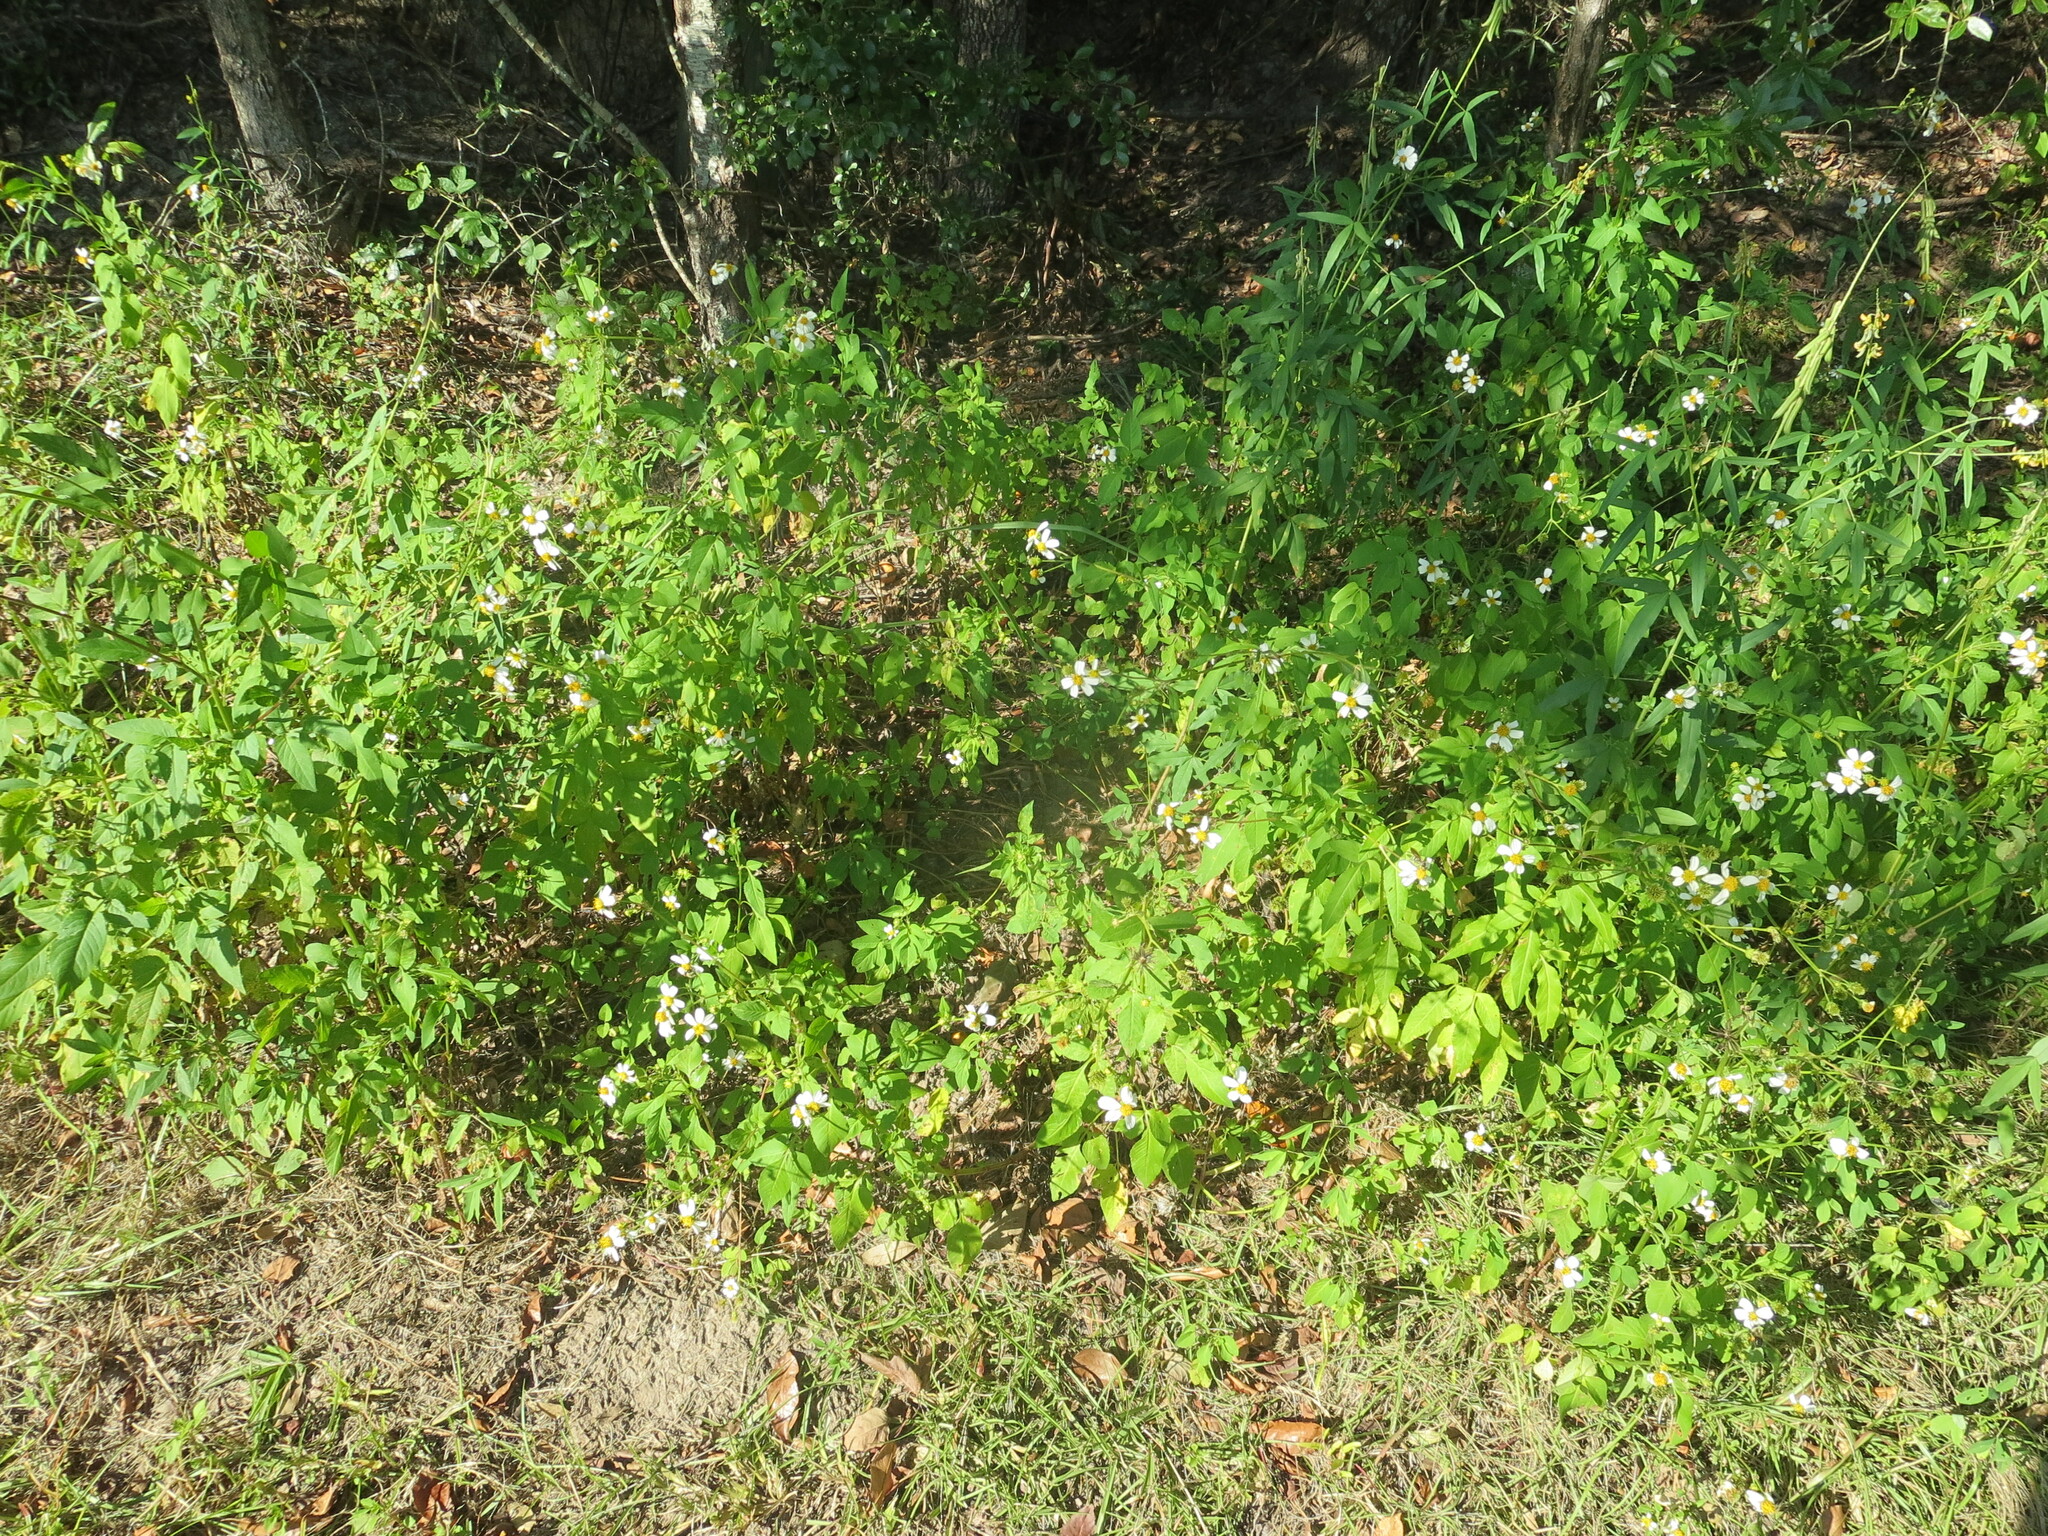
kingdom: Plantae
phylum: Tracheophyta
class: Magnoliopsida
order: Asterales
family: Asteraceae
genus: Bidens
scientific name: Bidens alba
